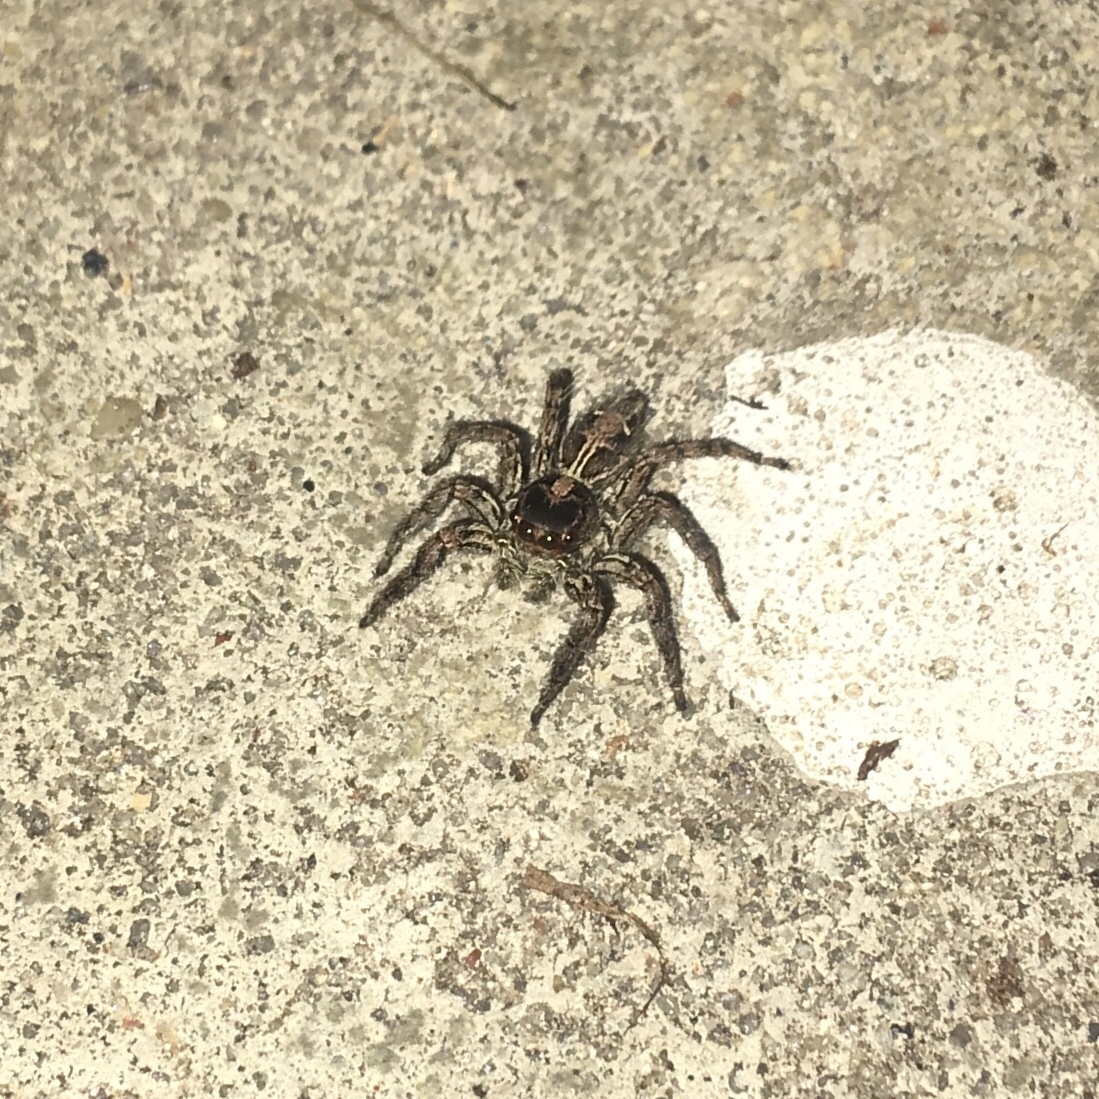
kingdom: Animalia
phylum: Arthropoda
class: Arachnida
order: Araneae
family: Salticidae
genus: Plexippus
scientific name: Plexippus paykulli
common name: Pantropical jumper
